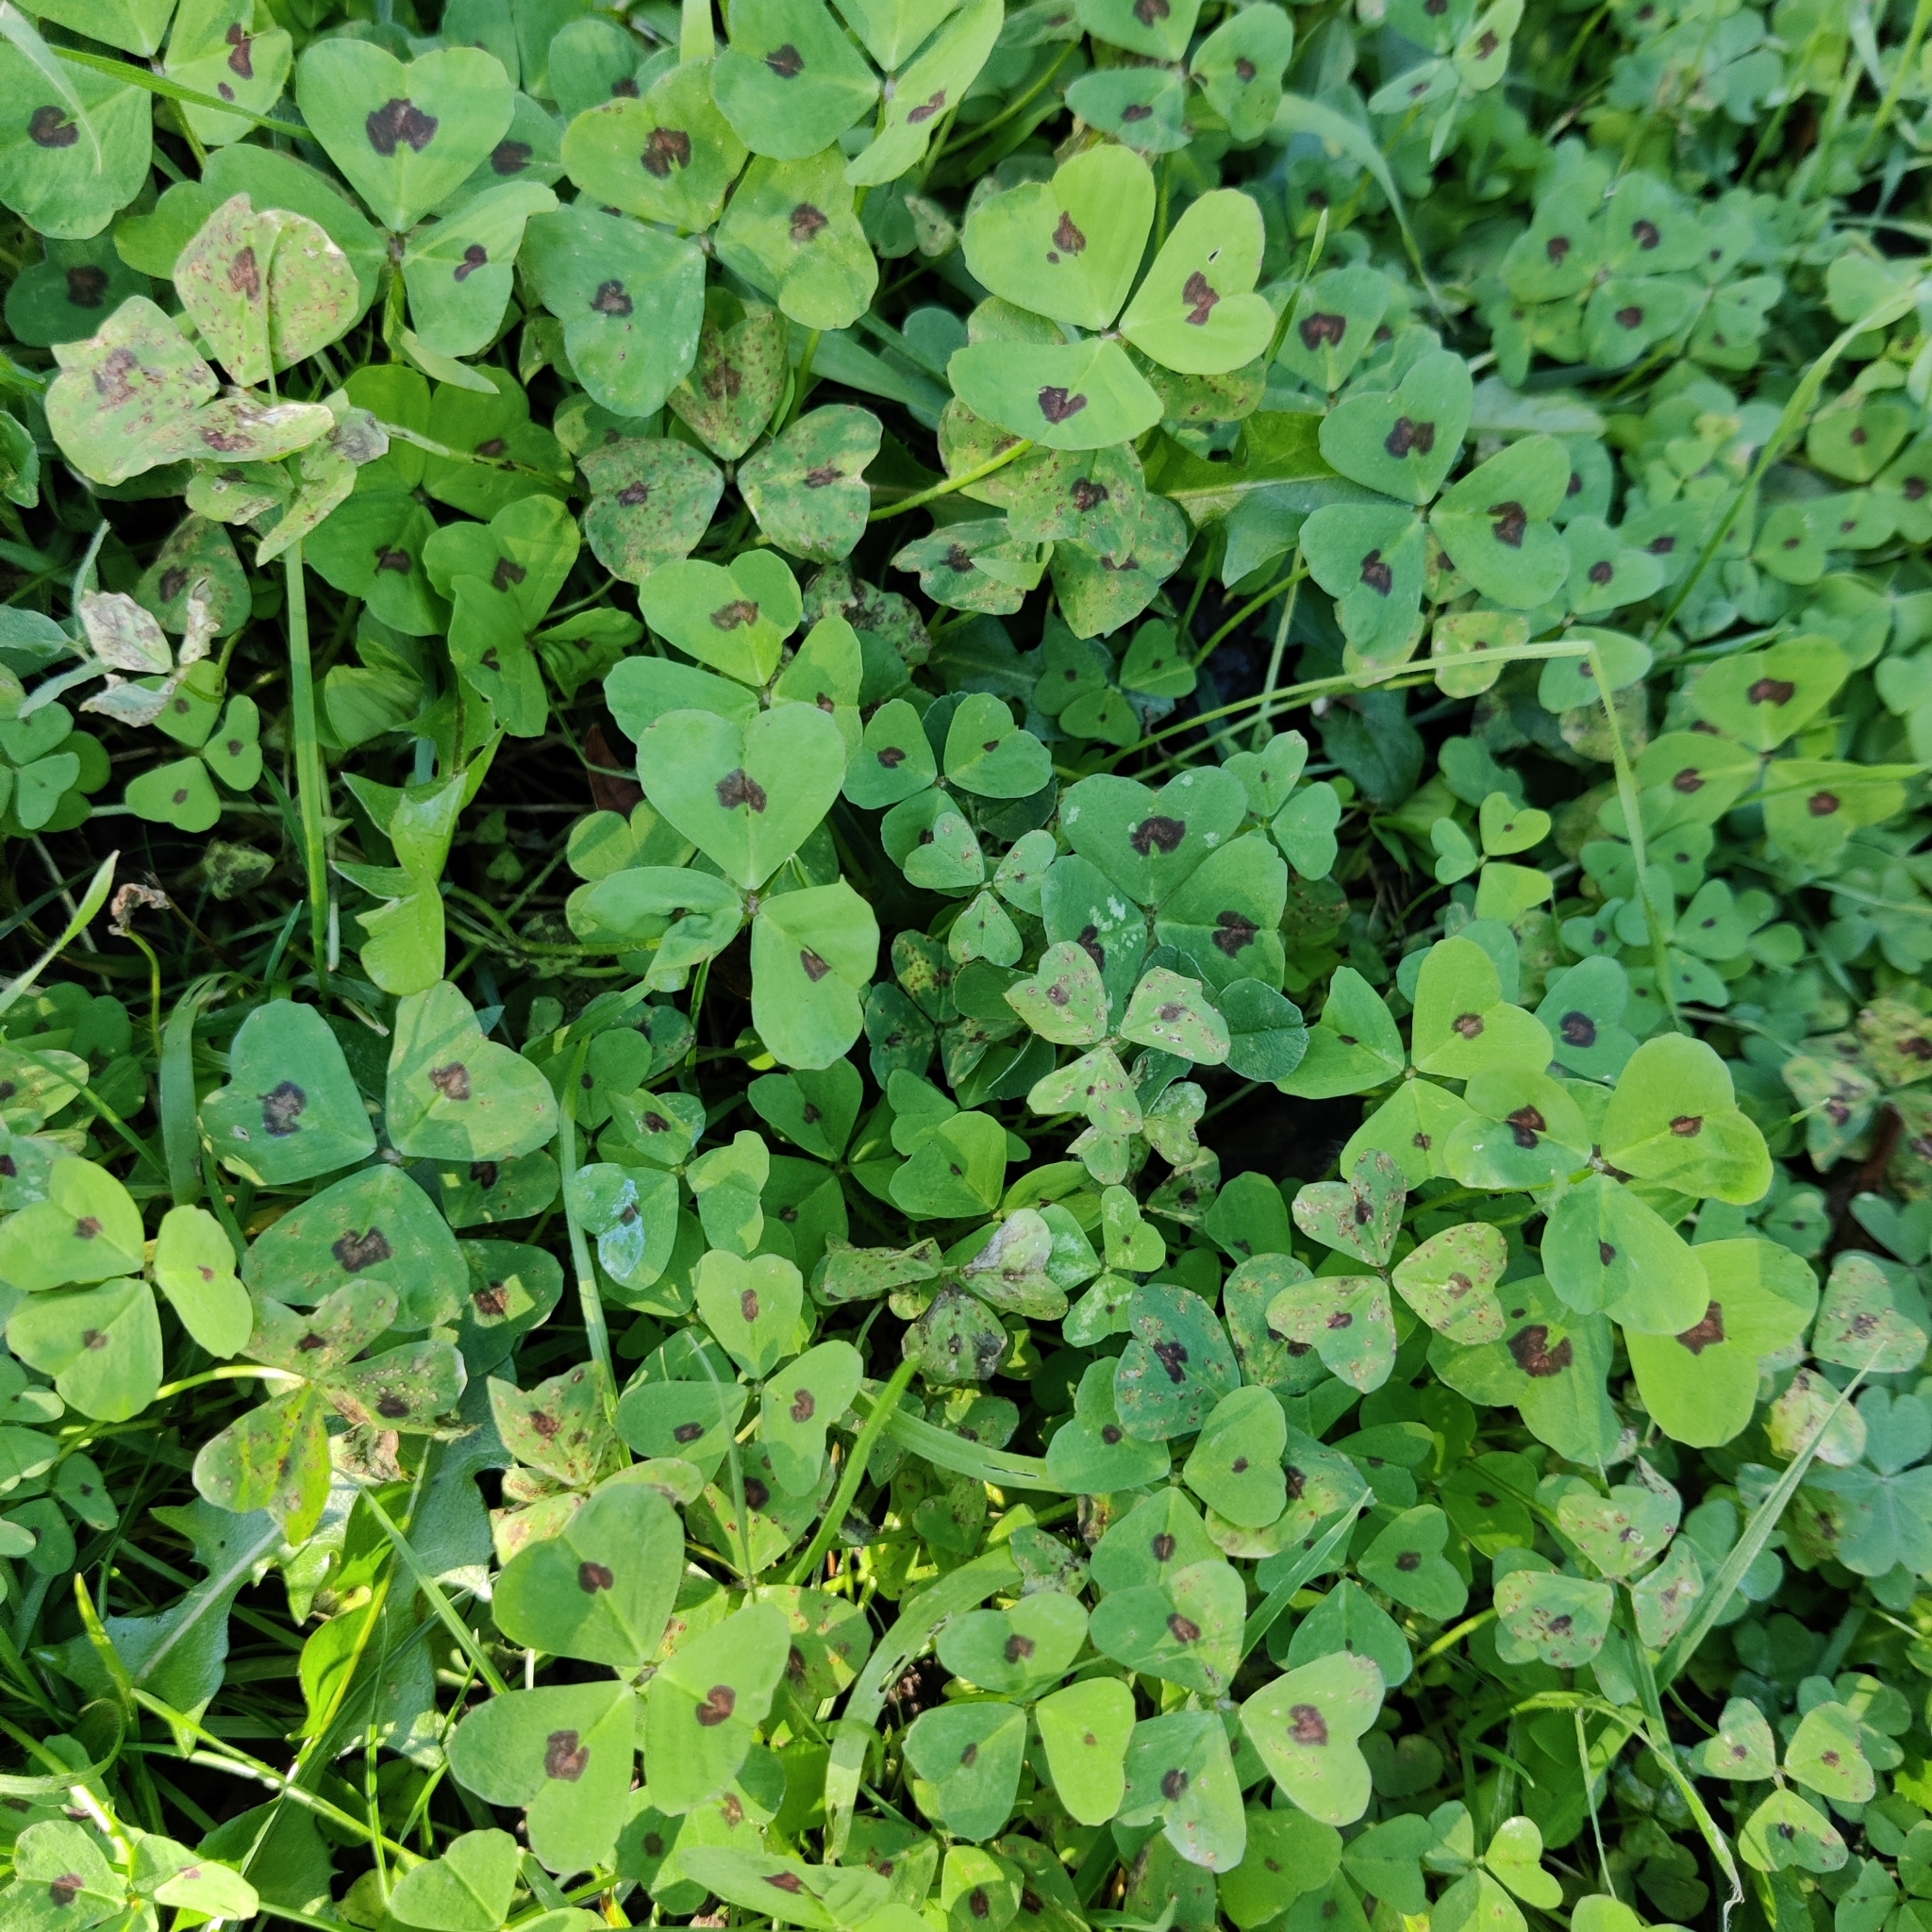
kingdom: Plantae
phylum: Tracheophyta
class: Magnoliopsida
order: Fabales
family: Fabaceae
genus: Medicago
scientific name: Medicago arabica
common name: Spotted medick
